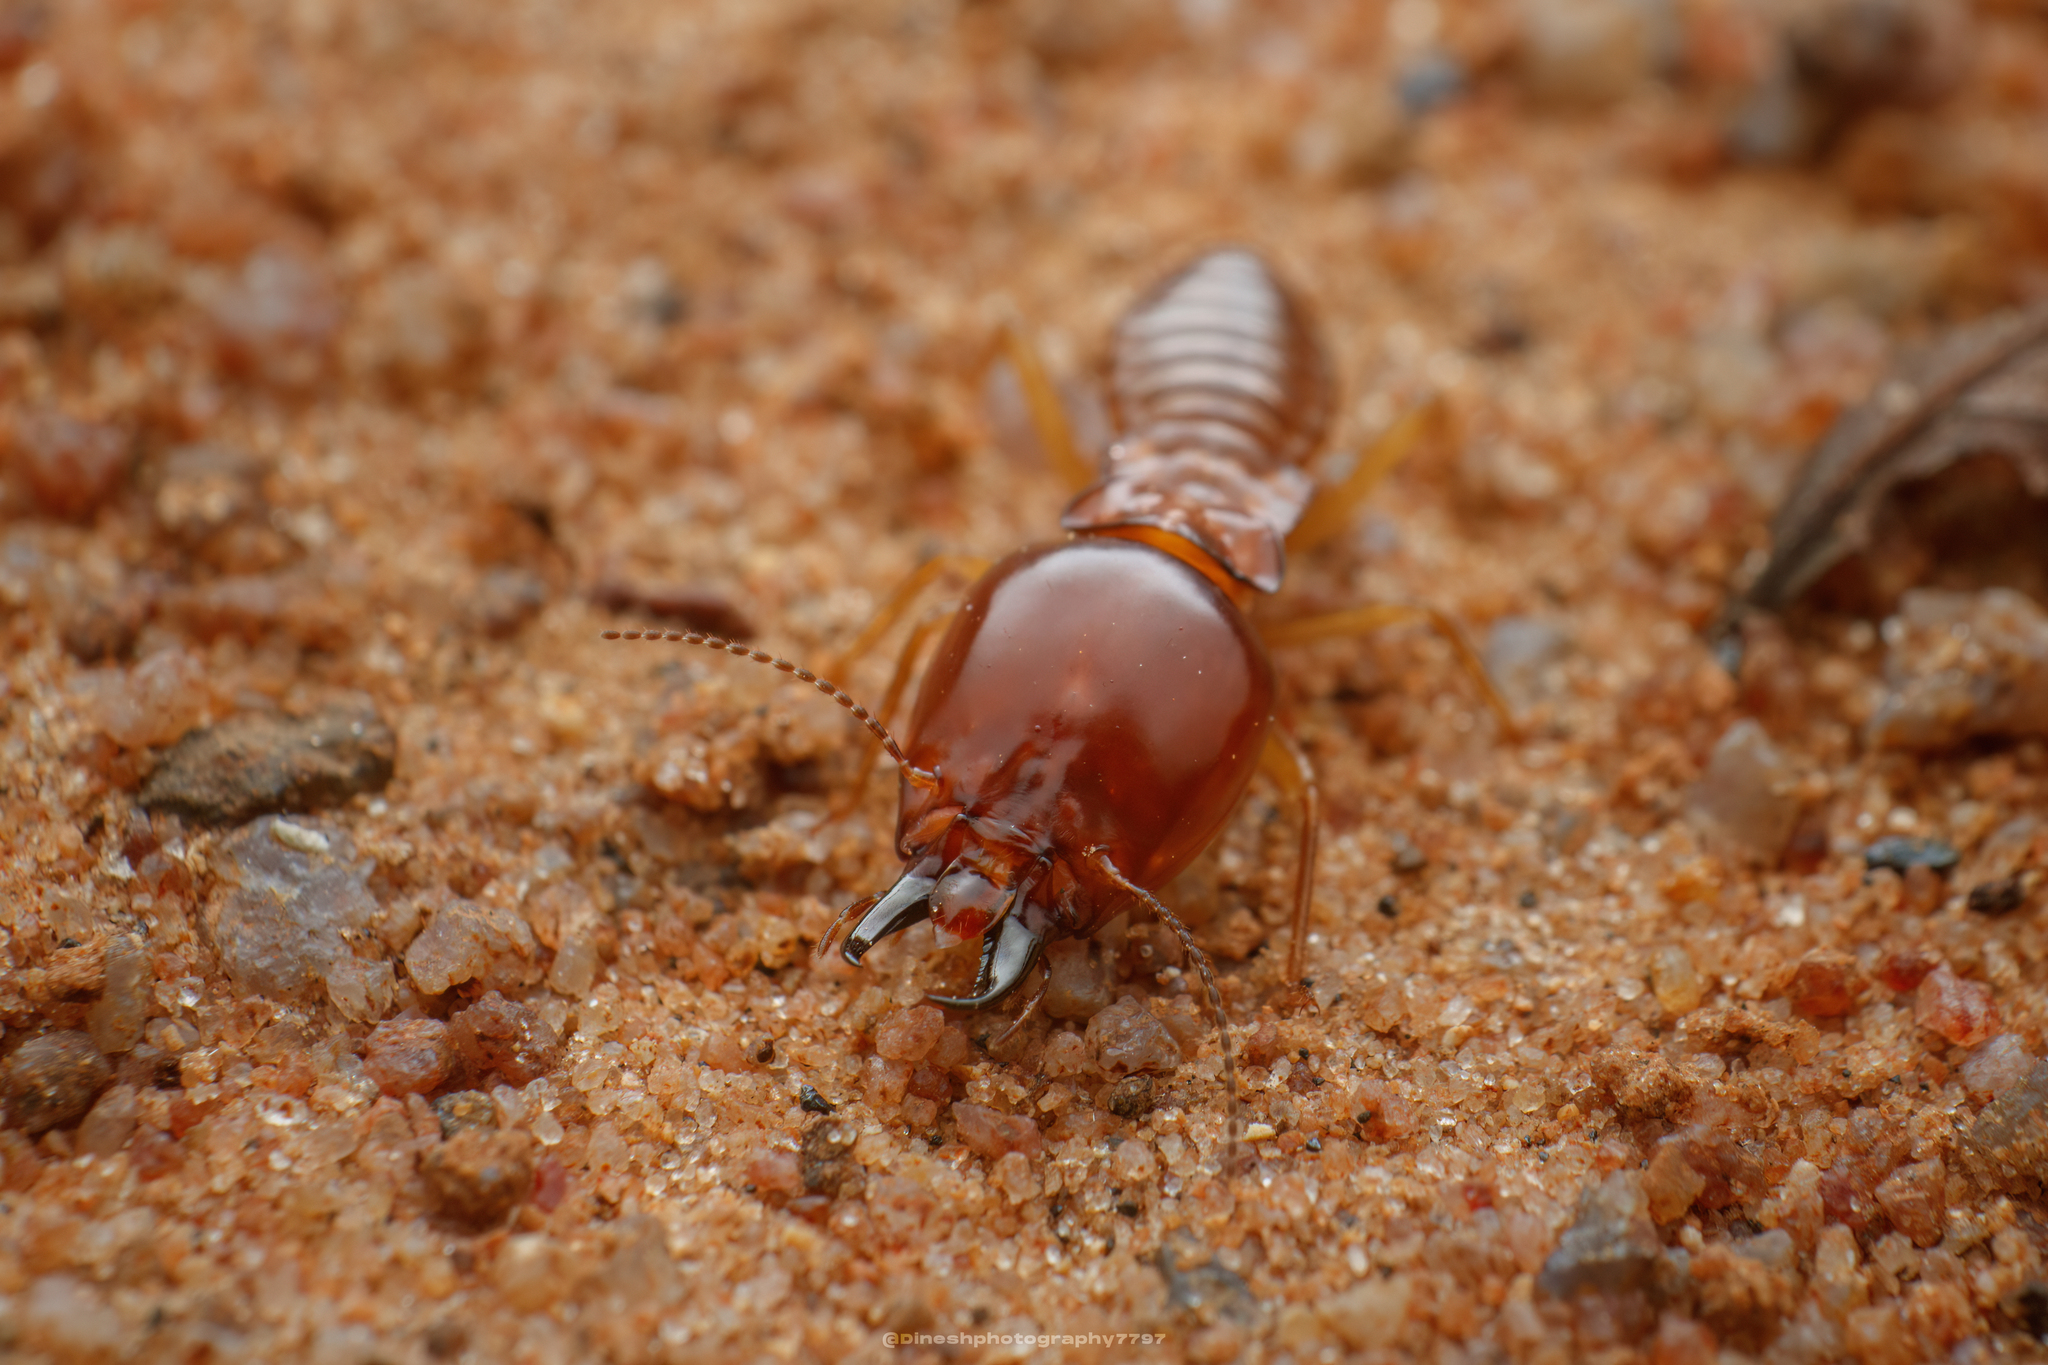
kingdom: Animalia
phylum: Arthropoda
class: Insecta
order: Blattodea
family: Termitidae
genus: Macrotermes
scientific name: Macrotermes convulsionarius
